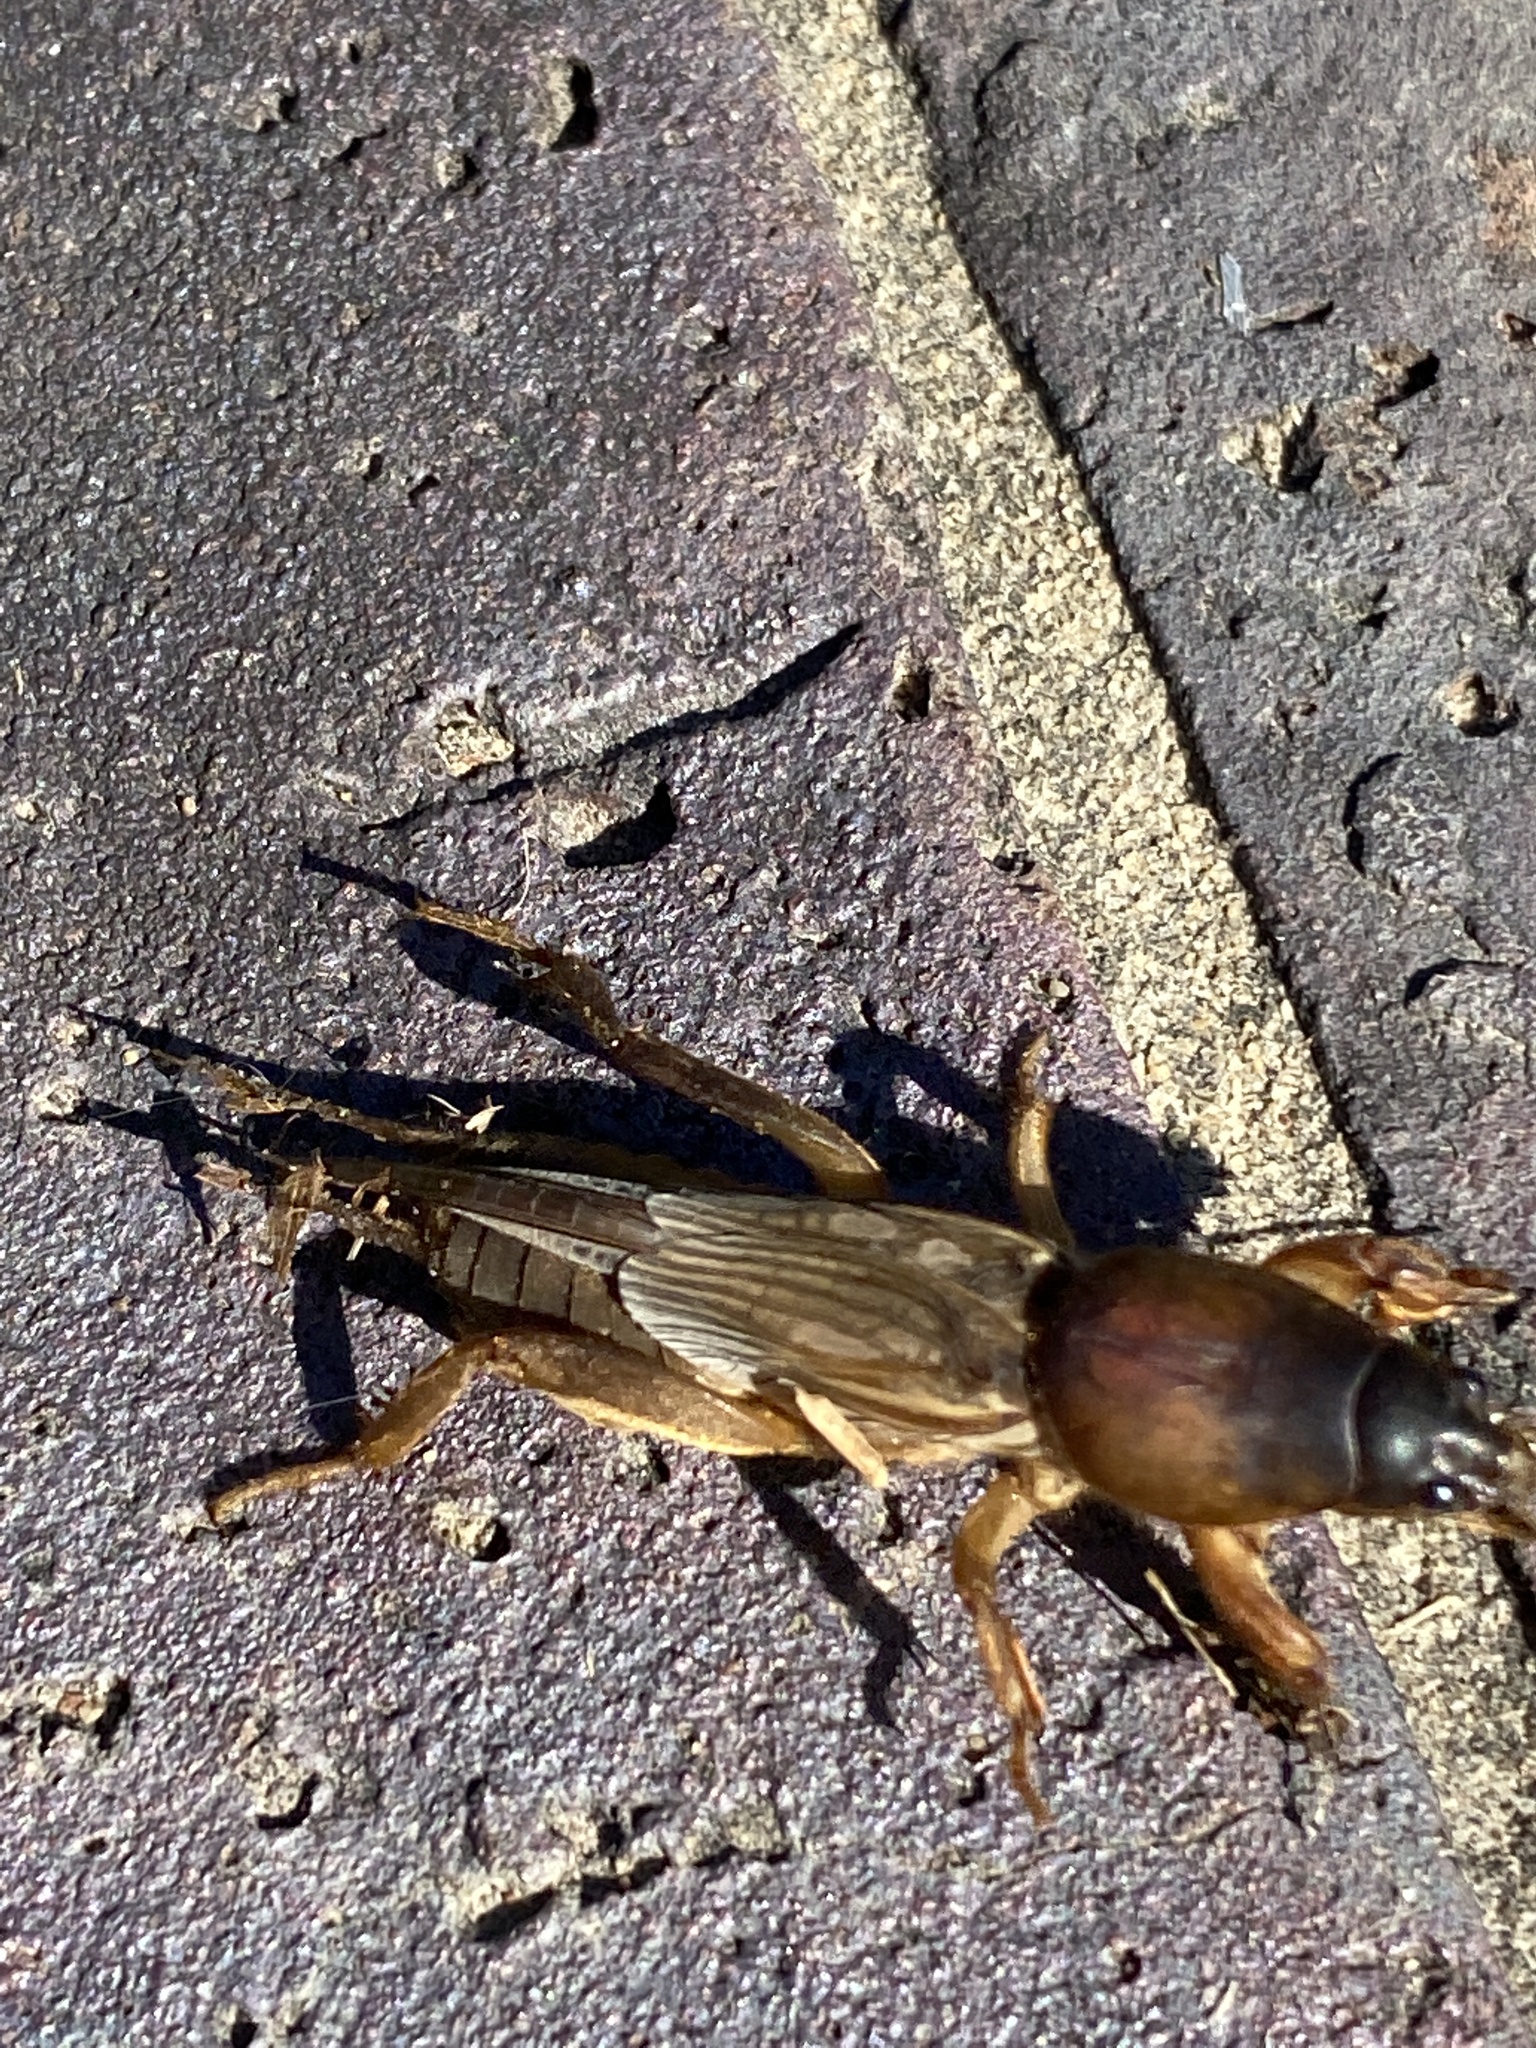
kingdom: Animalia
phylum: Arthropoda
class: Insecta
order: Orthoptera
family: Gryllotalpidae
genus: Gryllotalpa
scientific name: Gryllotalpa africana
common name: African mole cricket
